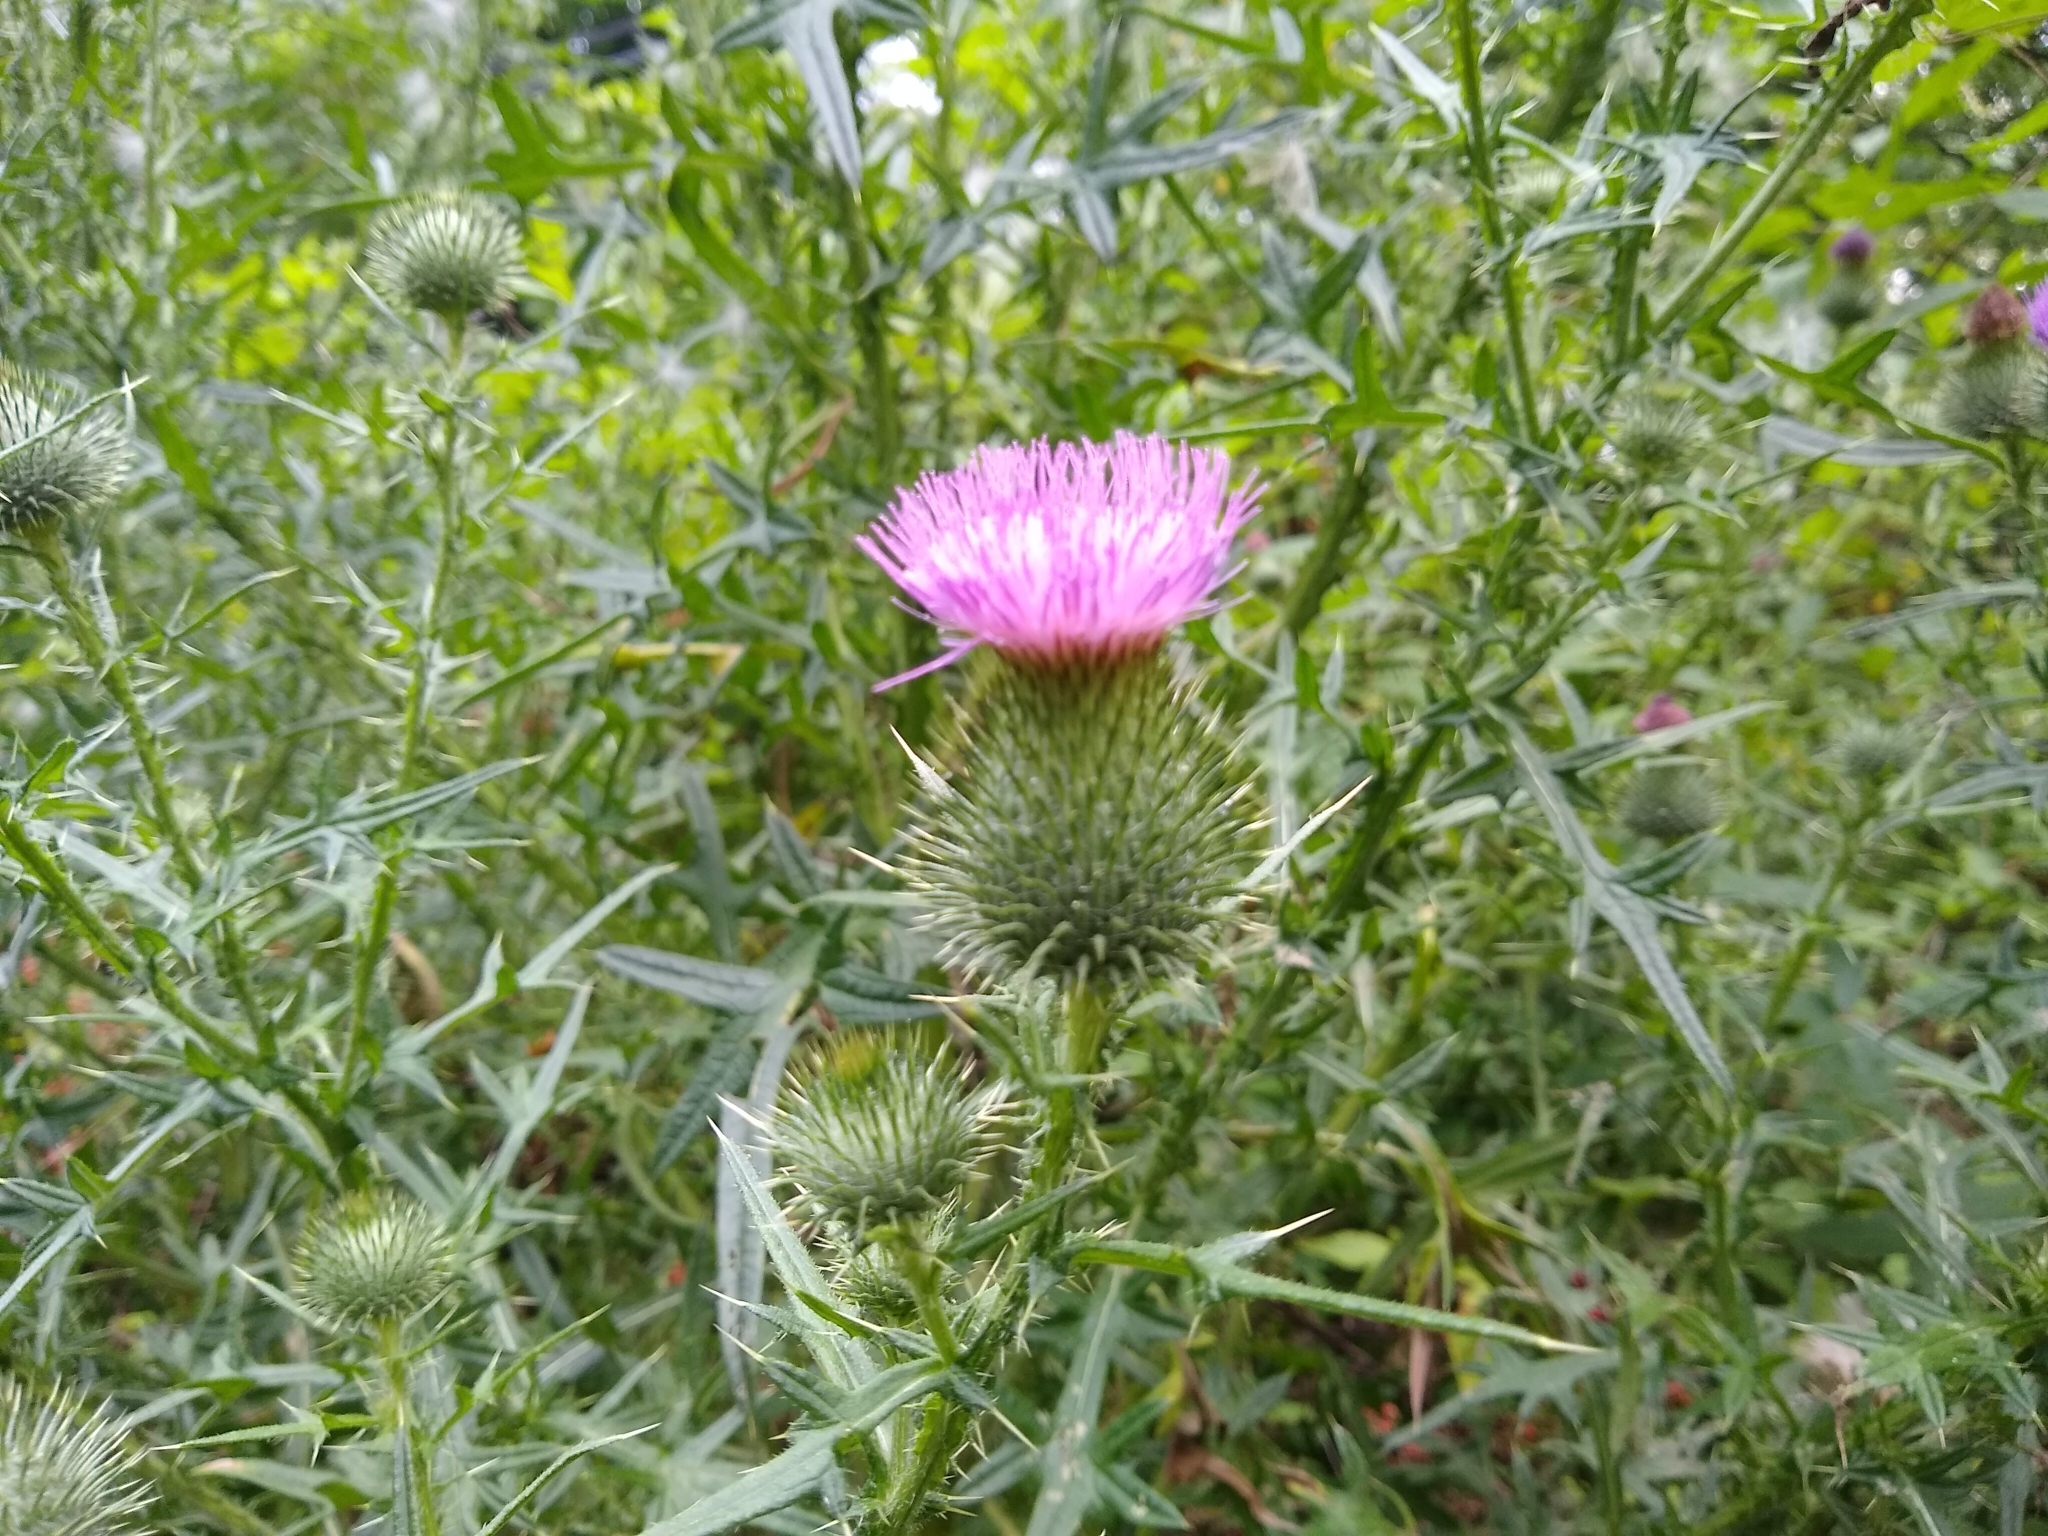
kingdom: Plantae
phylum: Tracheophyta
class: Magnoliopsida
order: Asterales
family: Asteraceae
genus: Cirsium
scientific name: Cirsium vulgare
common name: Bull thistle
